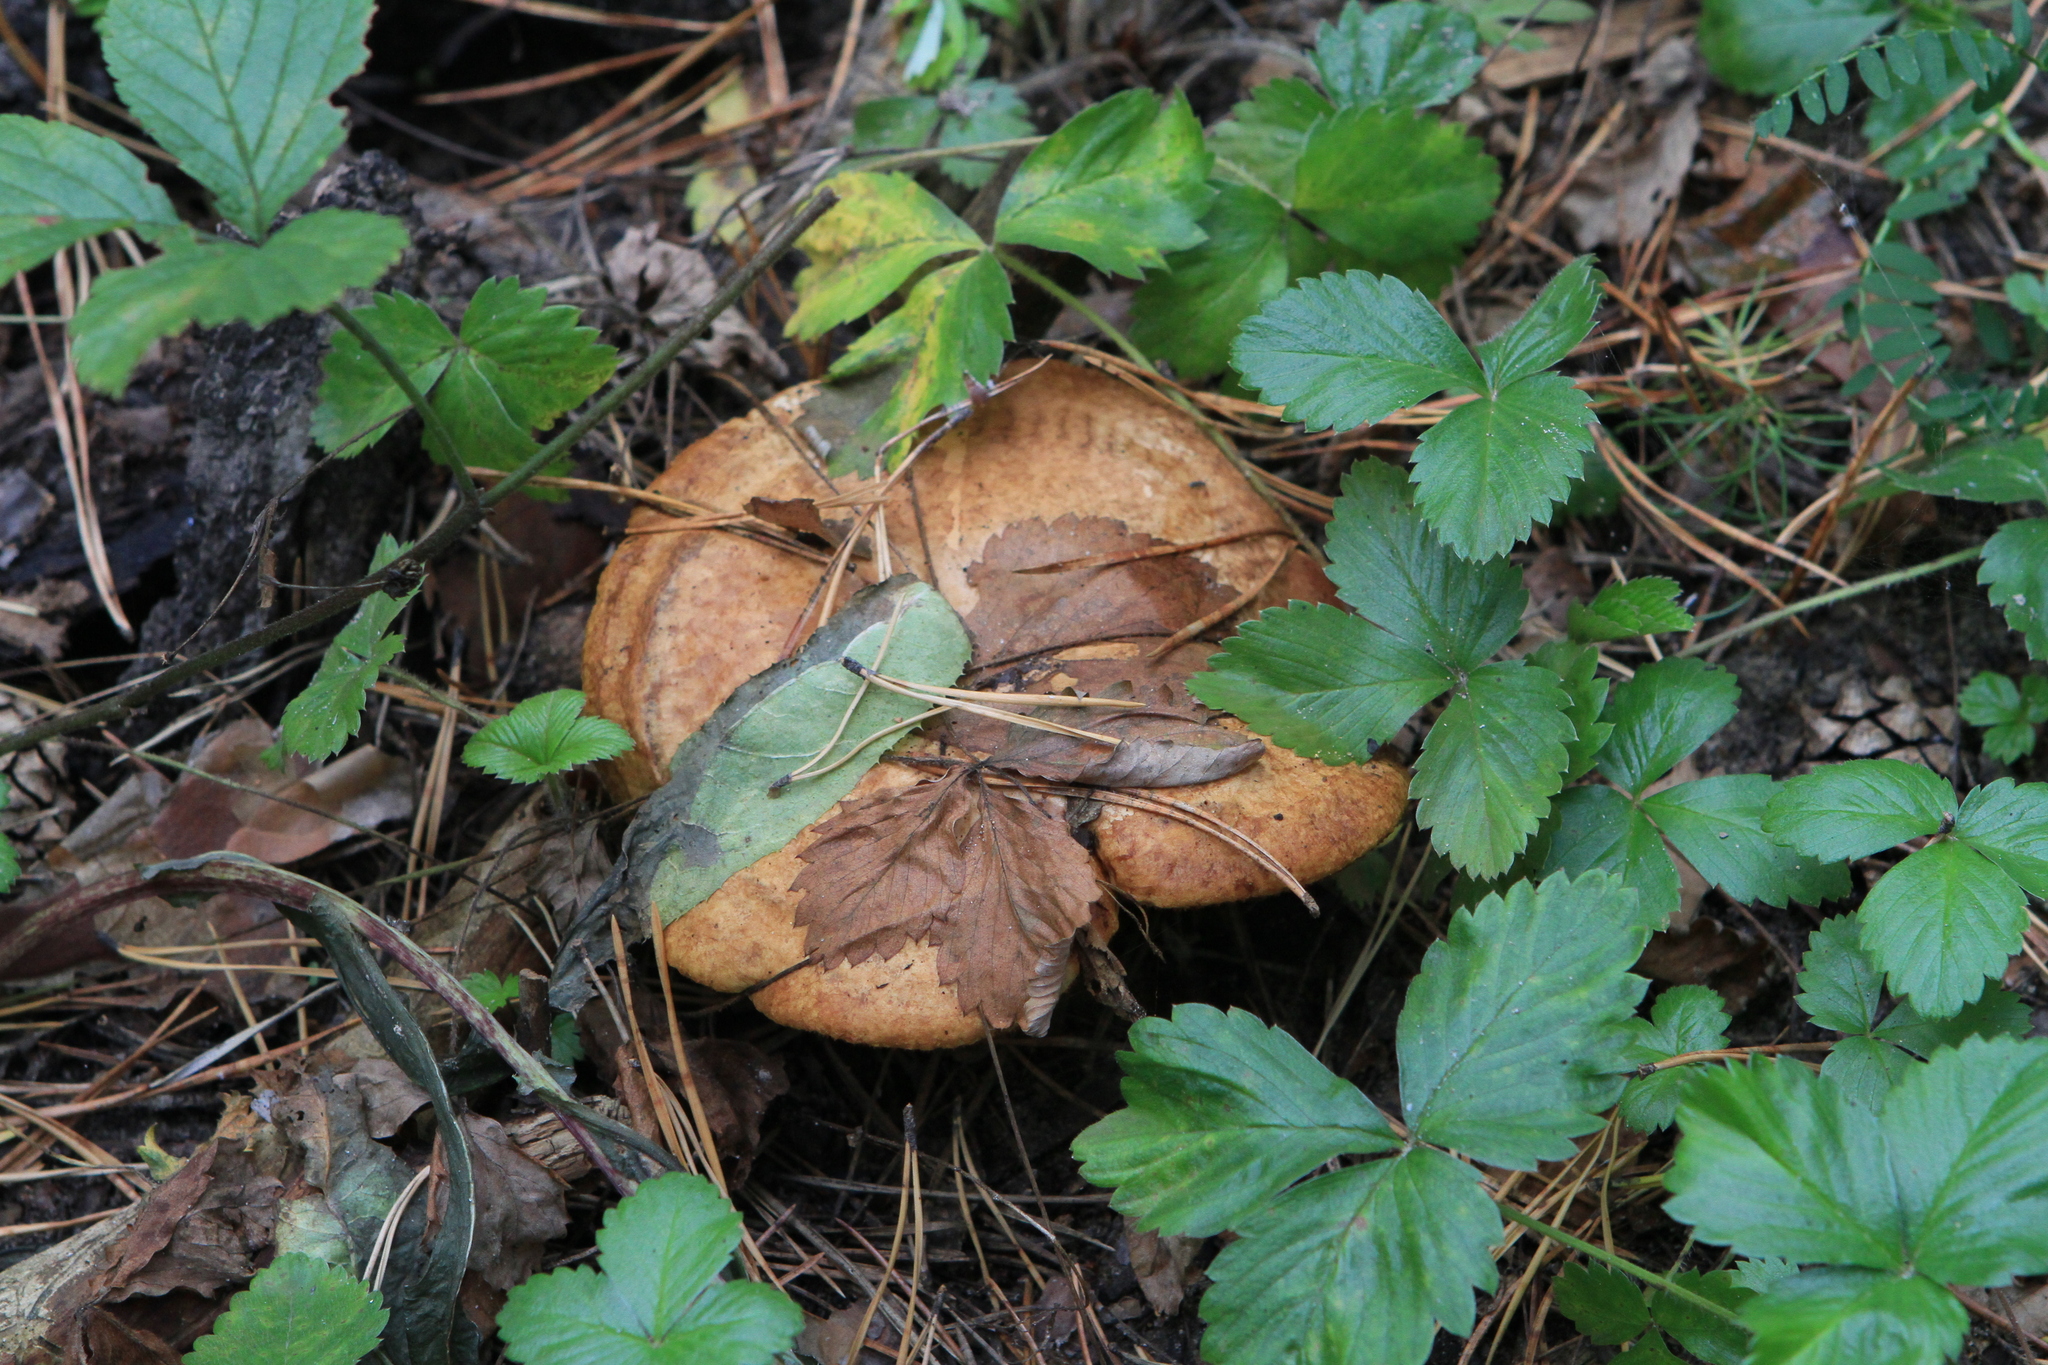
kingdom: Plantae
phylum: Tracheophyta
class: Magnoliopsida
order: Rosales
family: Rosaceae
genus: Fragaria
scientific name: Fragaria vesca
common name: Wild strawberry
